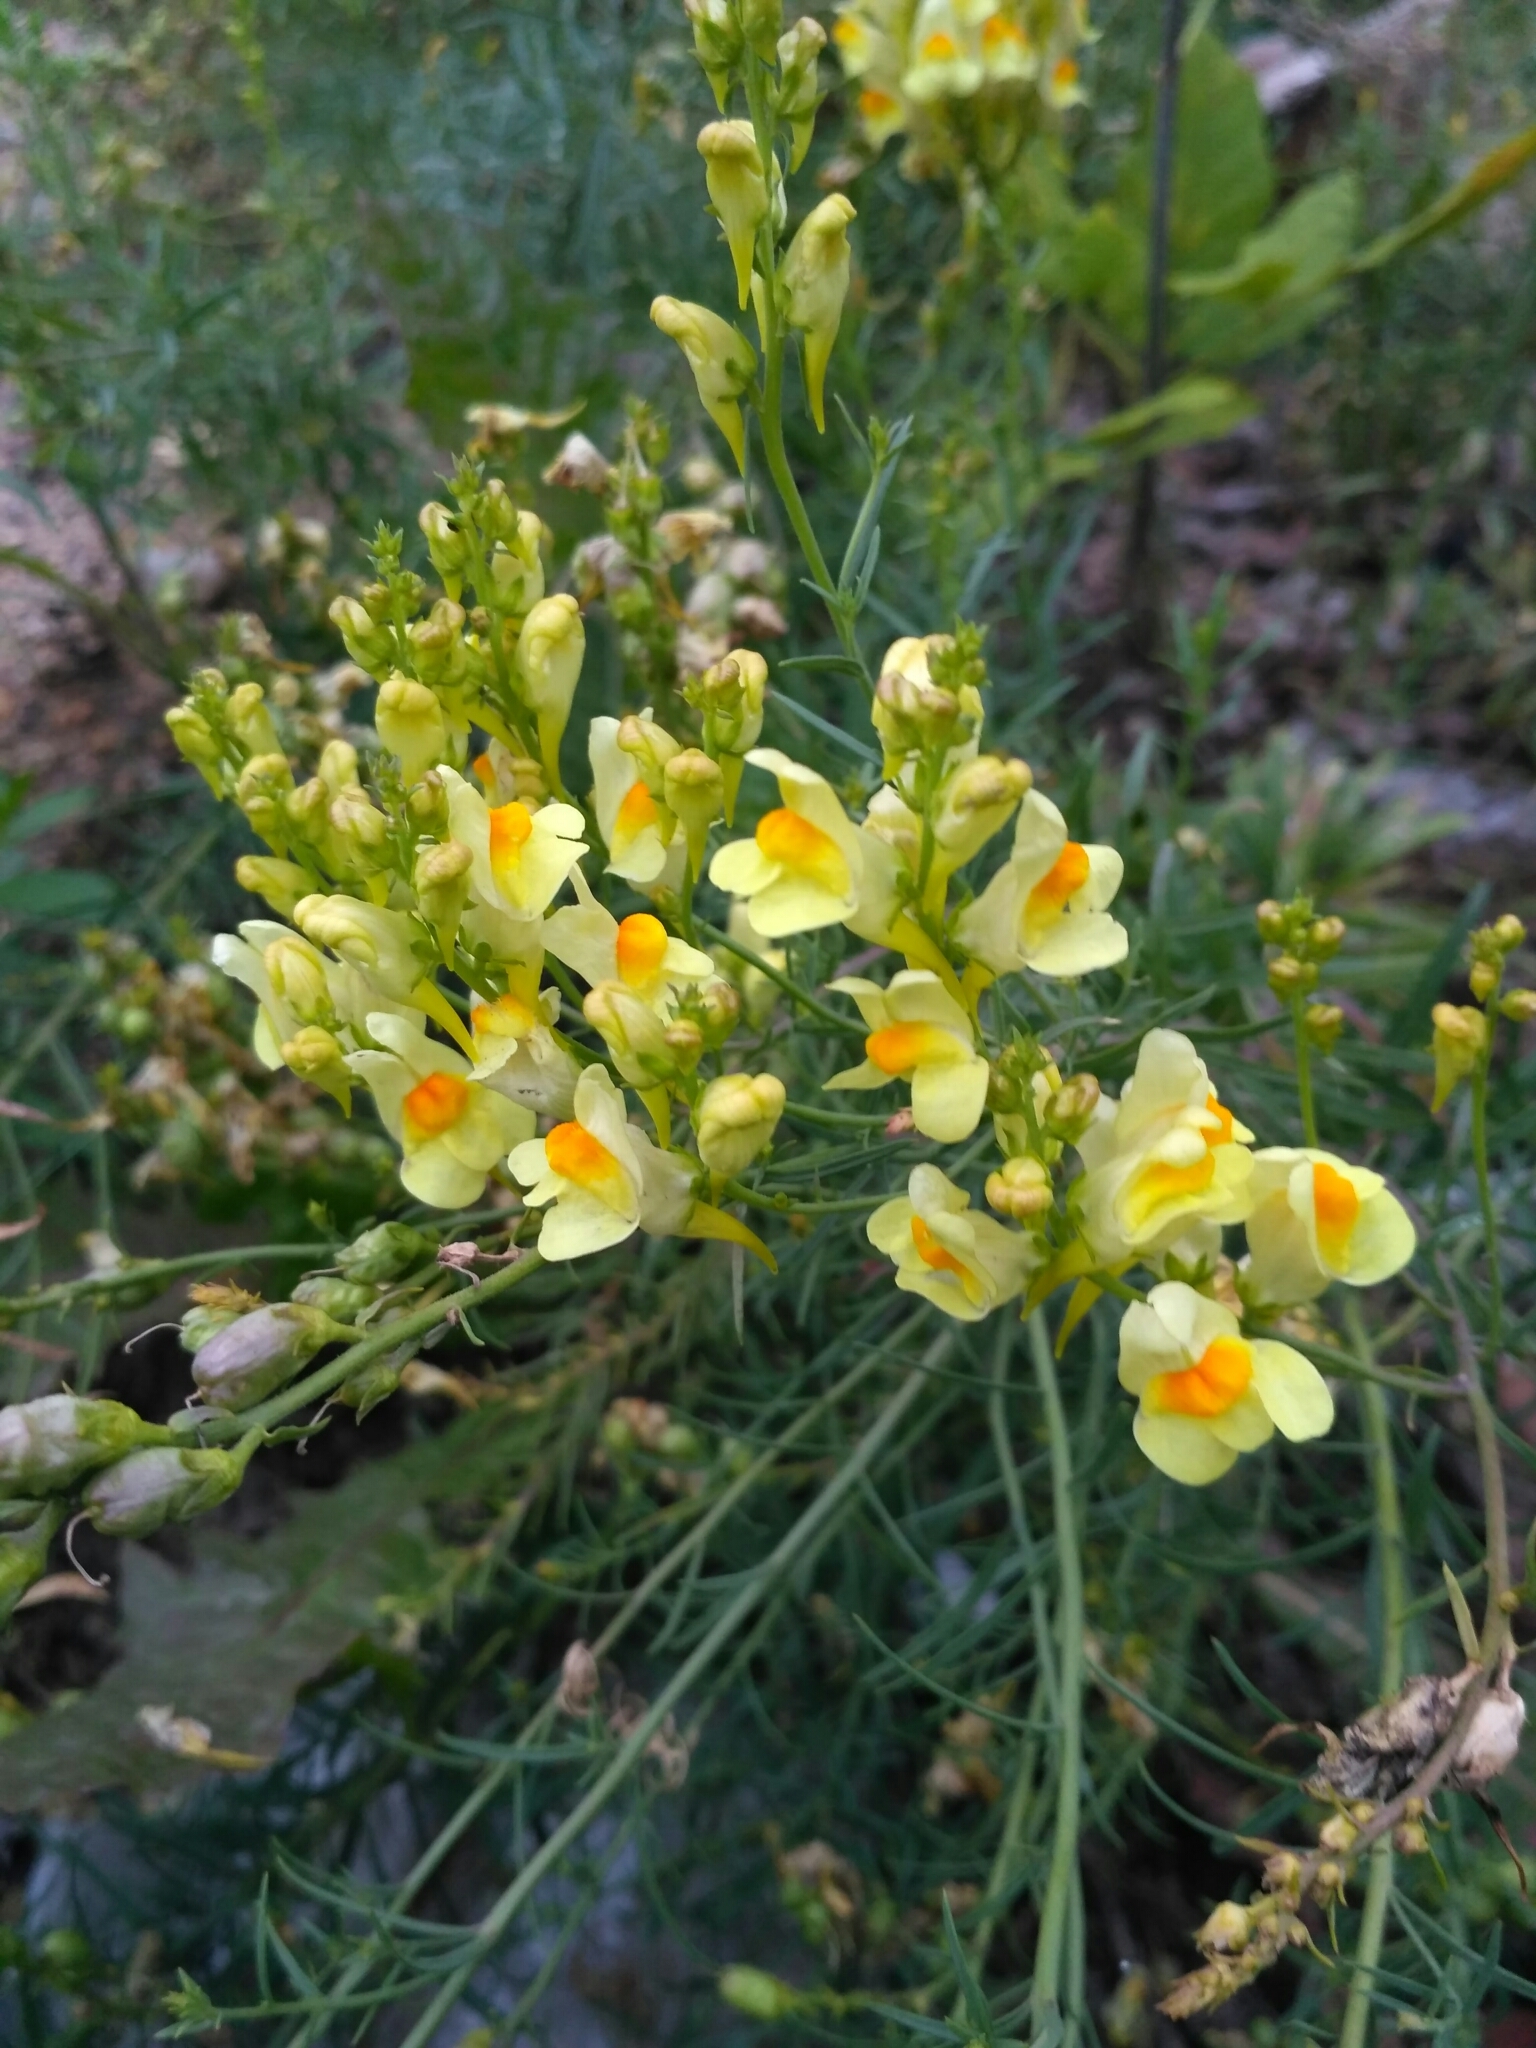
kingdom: Plantae
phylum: Tracheophyta
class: Magnoliopsida
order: Lamiales
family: Plantaginaceae
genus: Linaria
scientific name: Linaria vulgaris
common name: Butter and eggs
